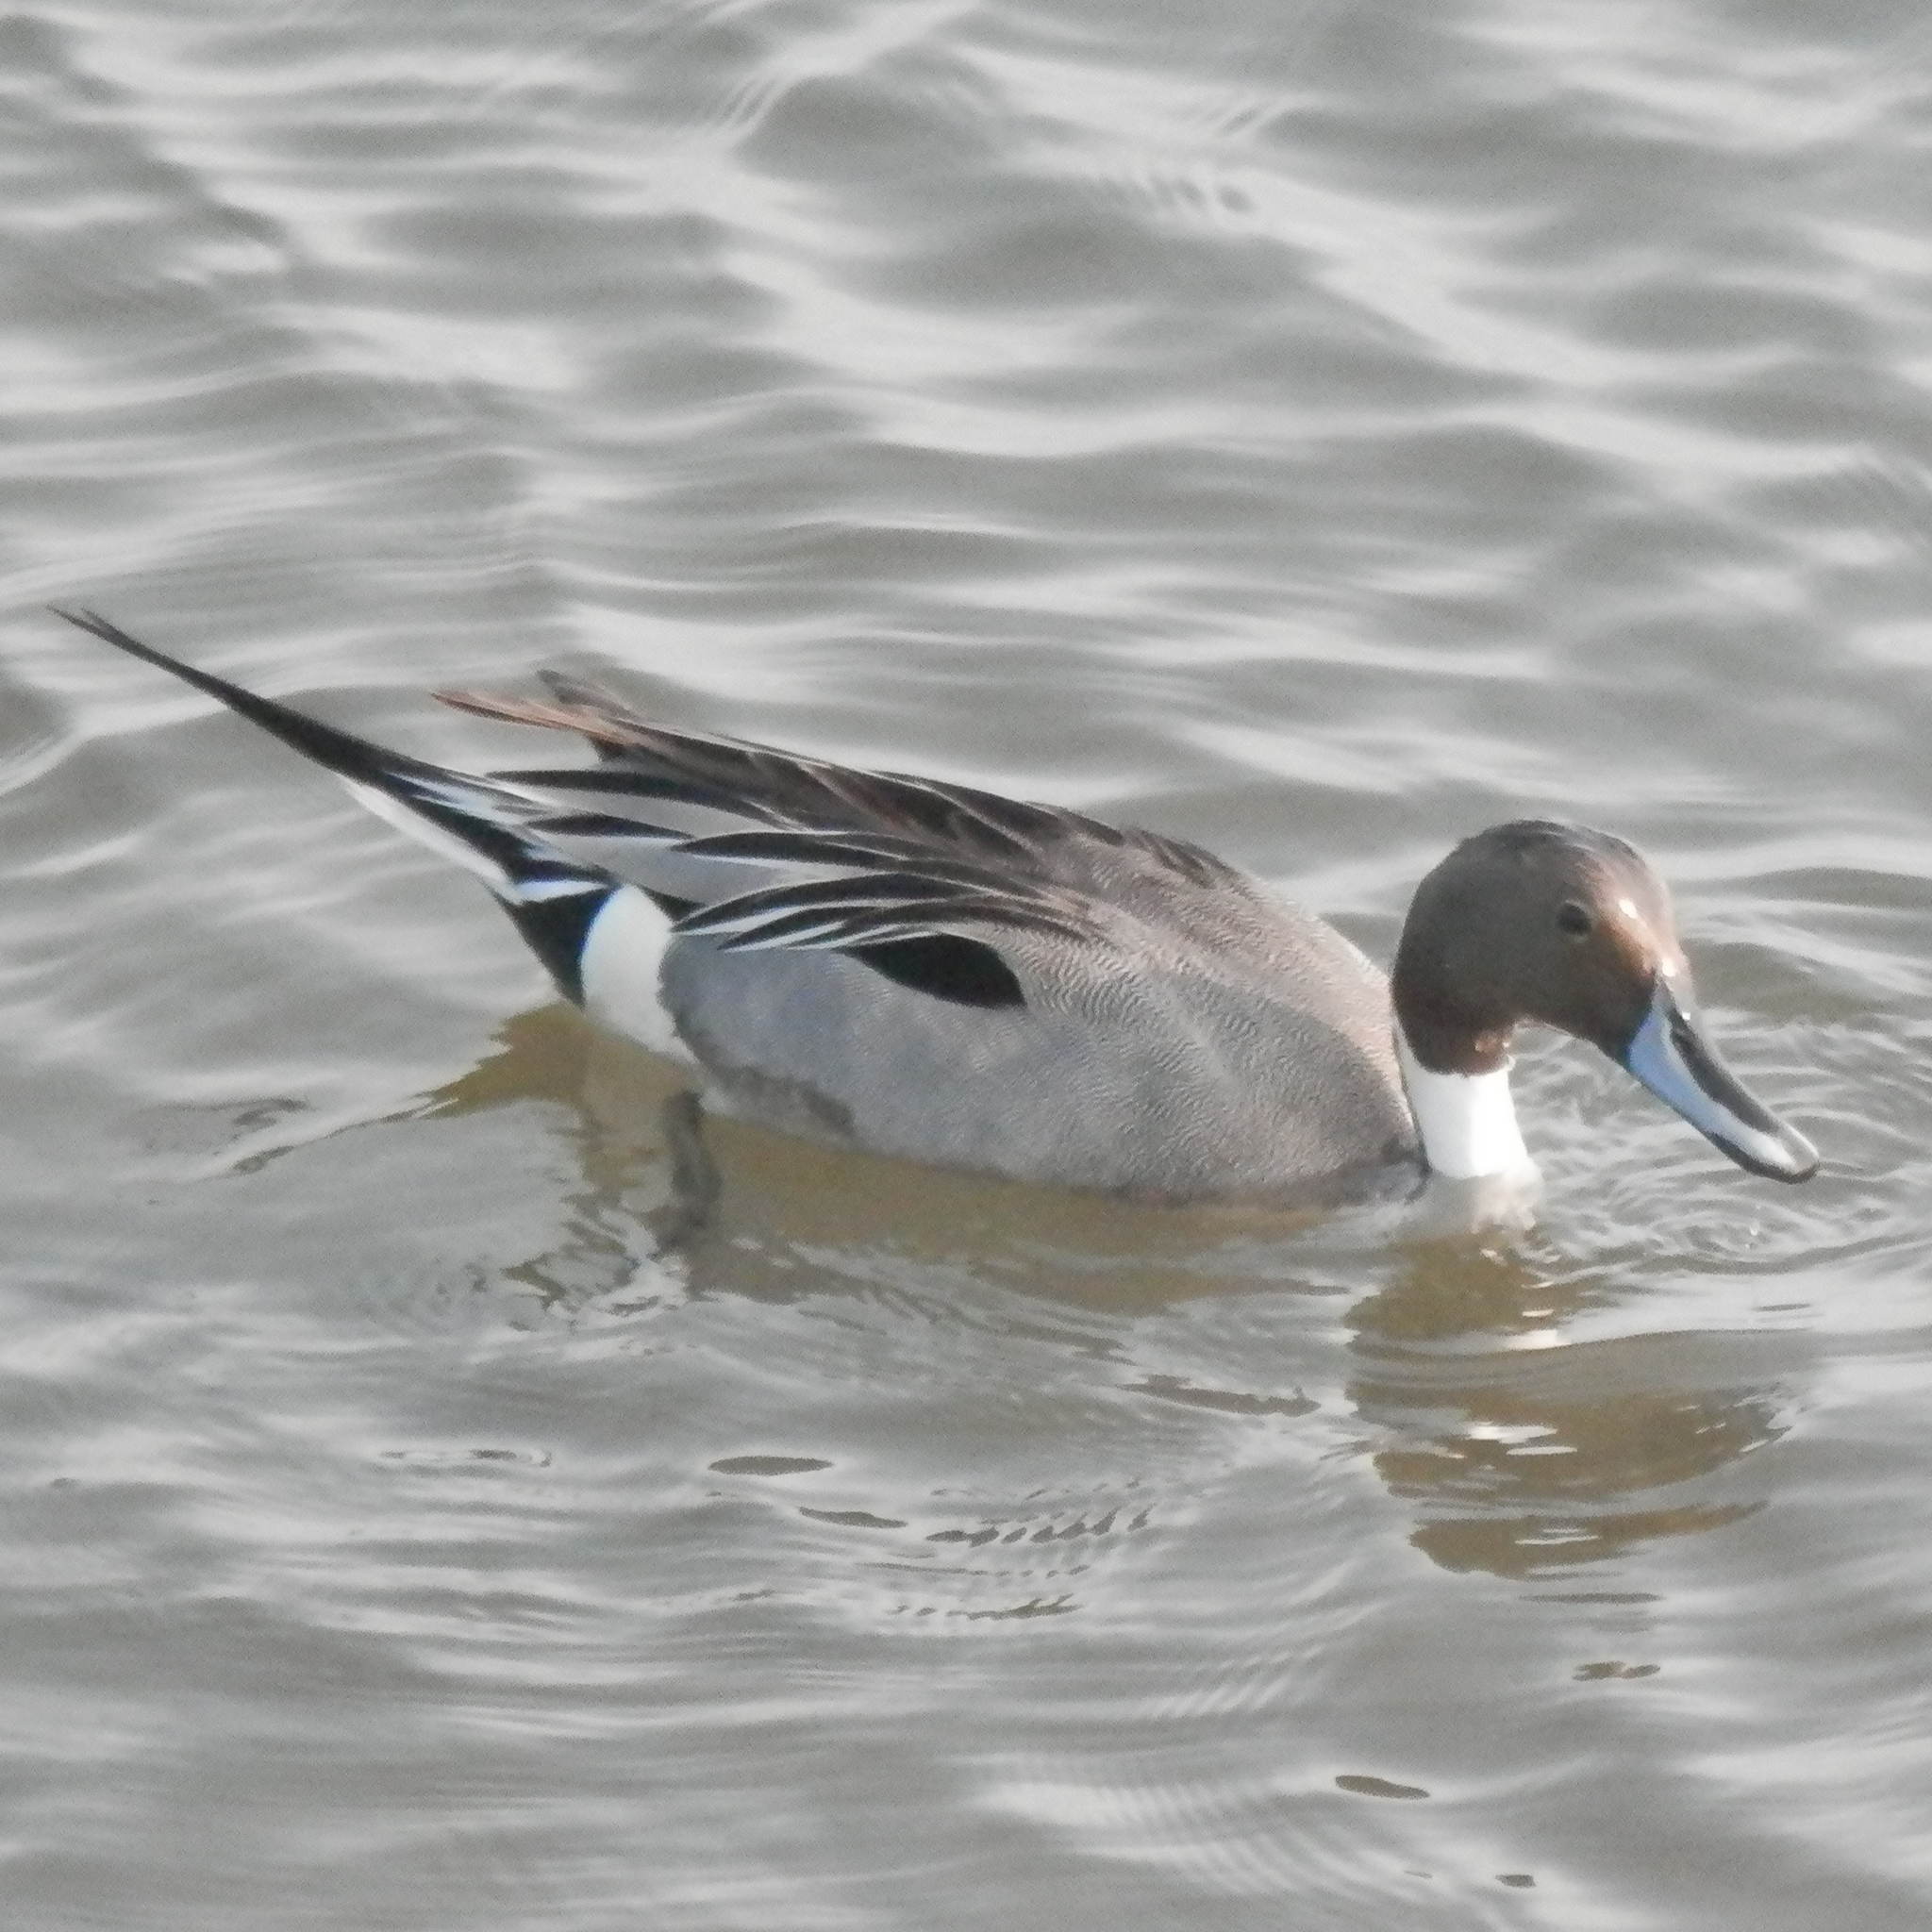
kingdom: Animalia
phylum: Chordata
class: Aves
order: Anseriformes
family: Anatidae
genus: Anas
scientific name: Anas acuta
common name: Northern pintail
